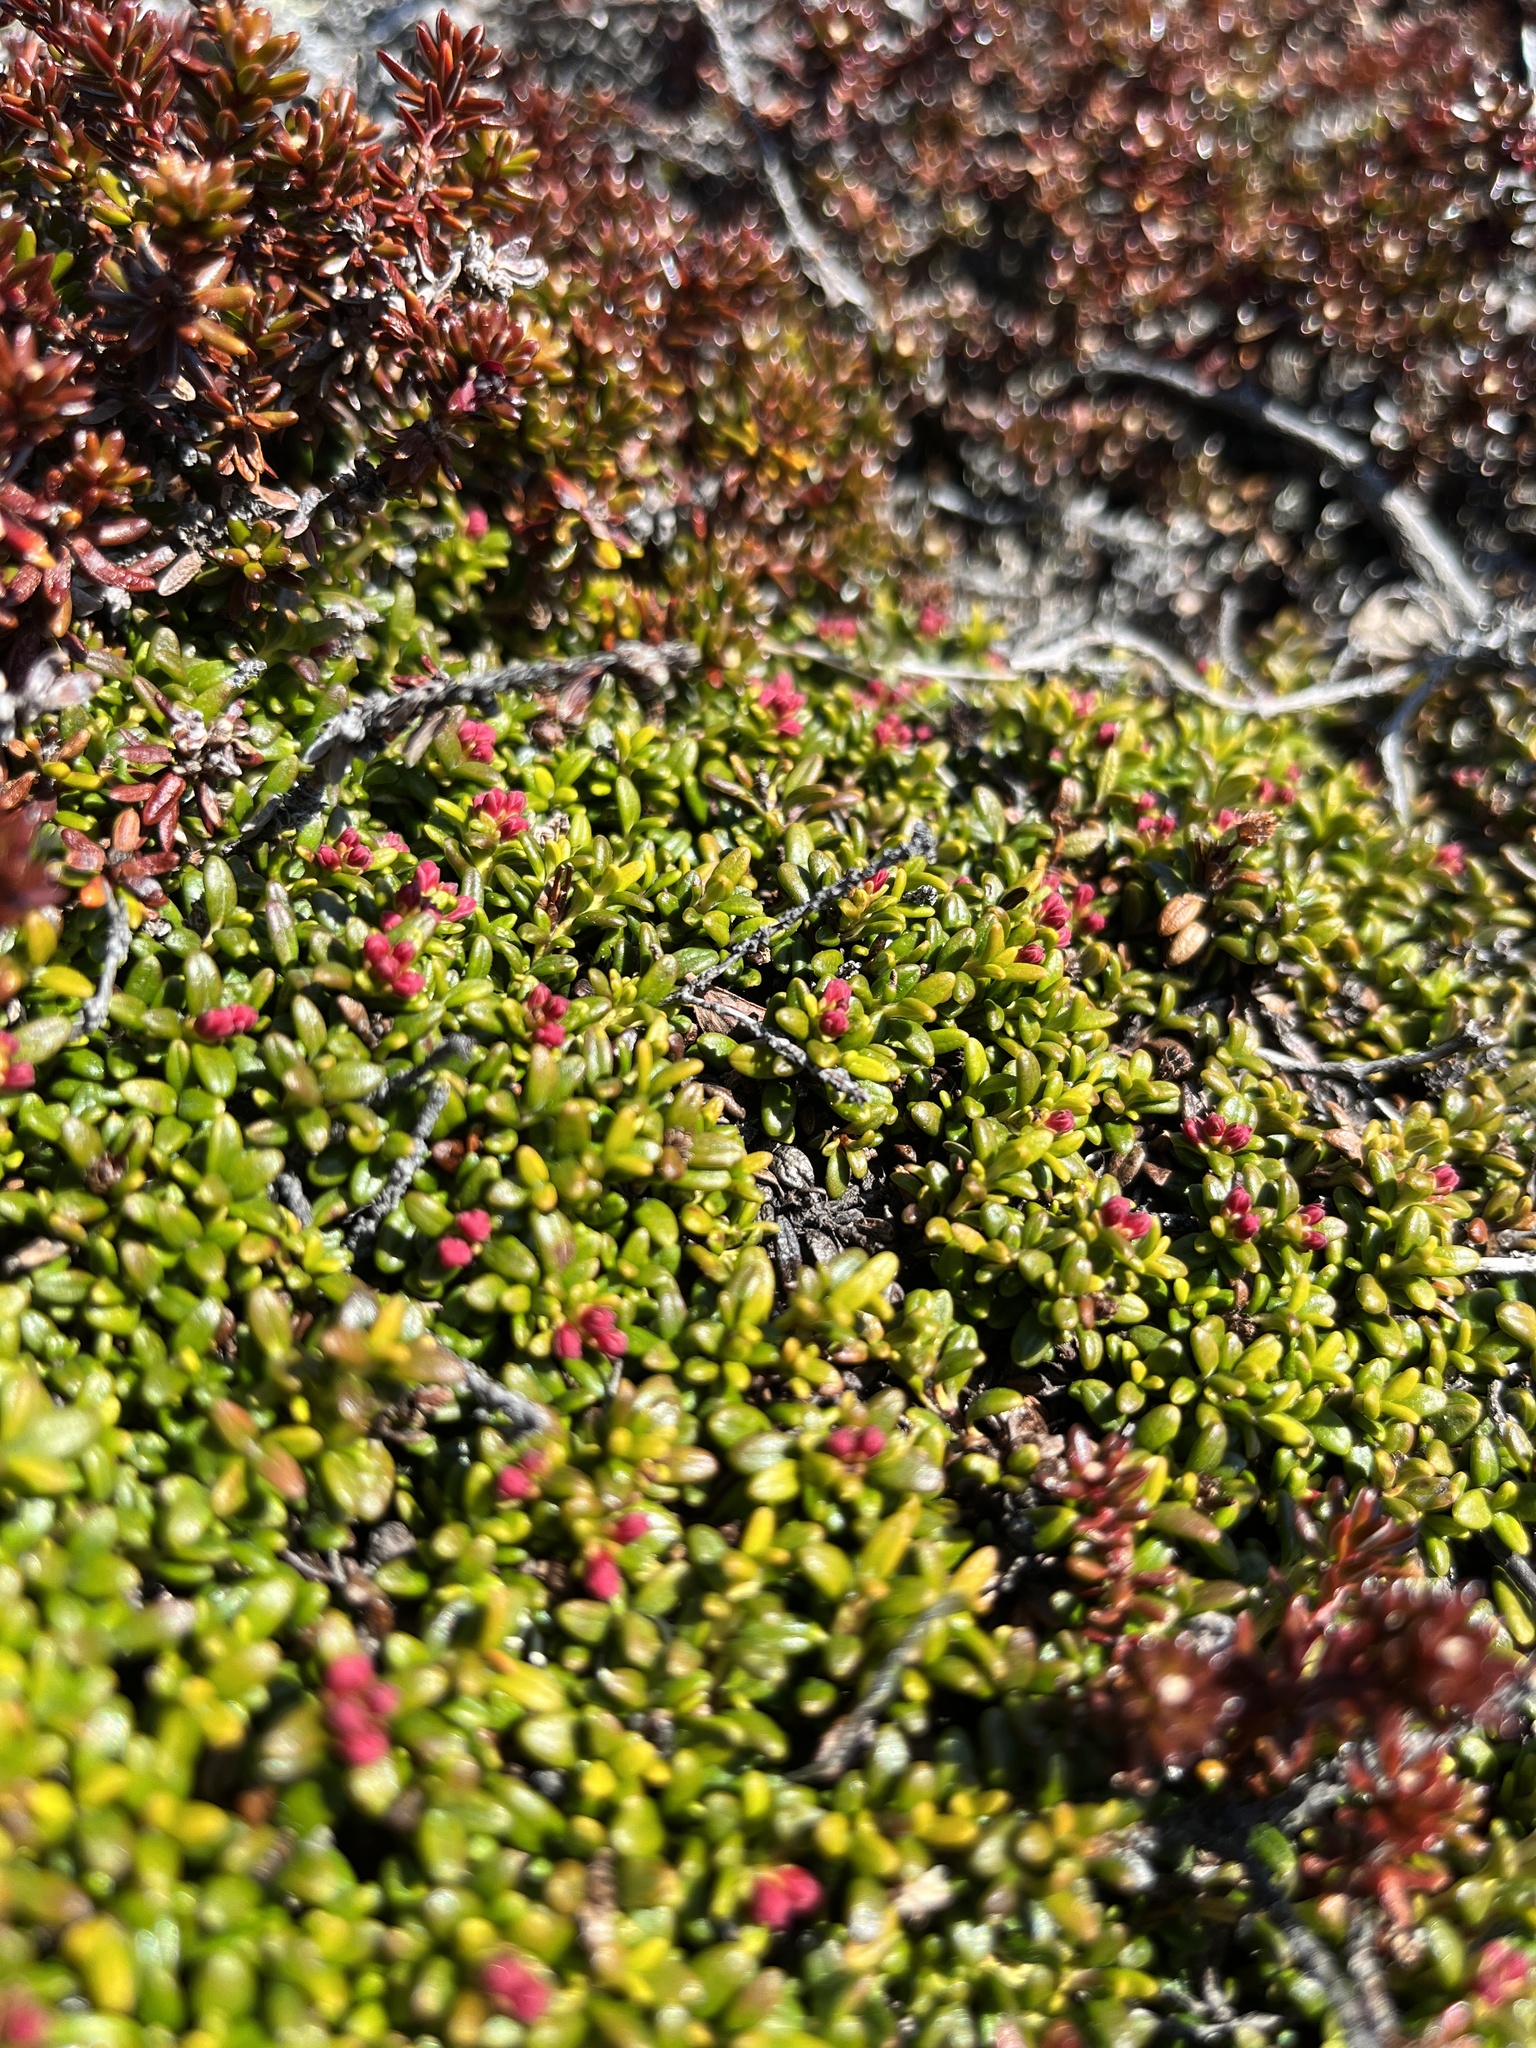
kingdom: Plantae
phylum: Tracheophyta
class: Magnoliopsida
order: Ericales
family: Ericaceae
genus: Kalmia
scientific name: Kalmia procumbens
